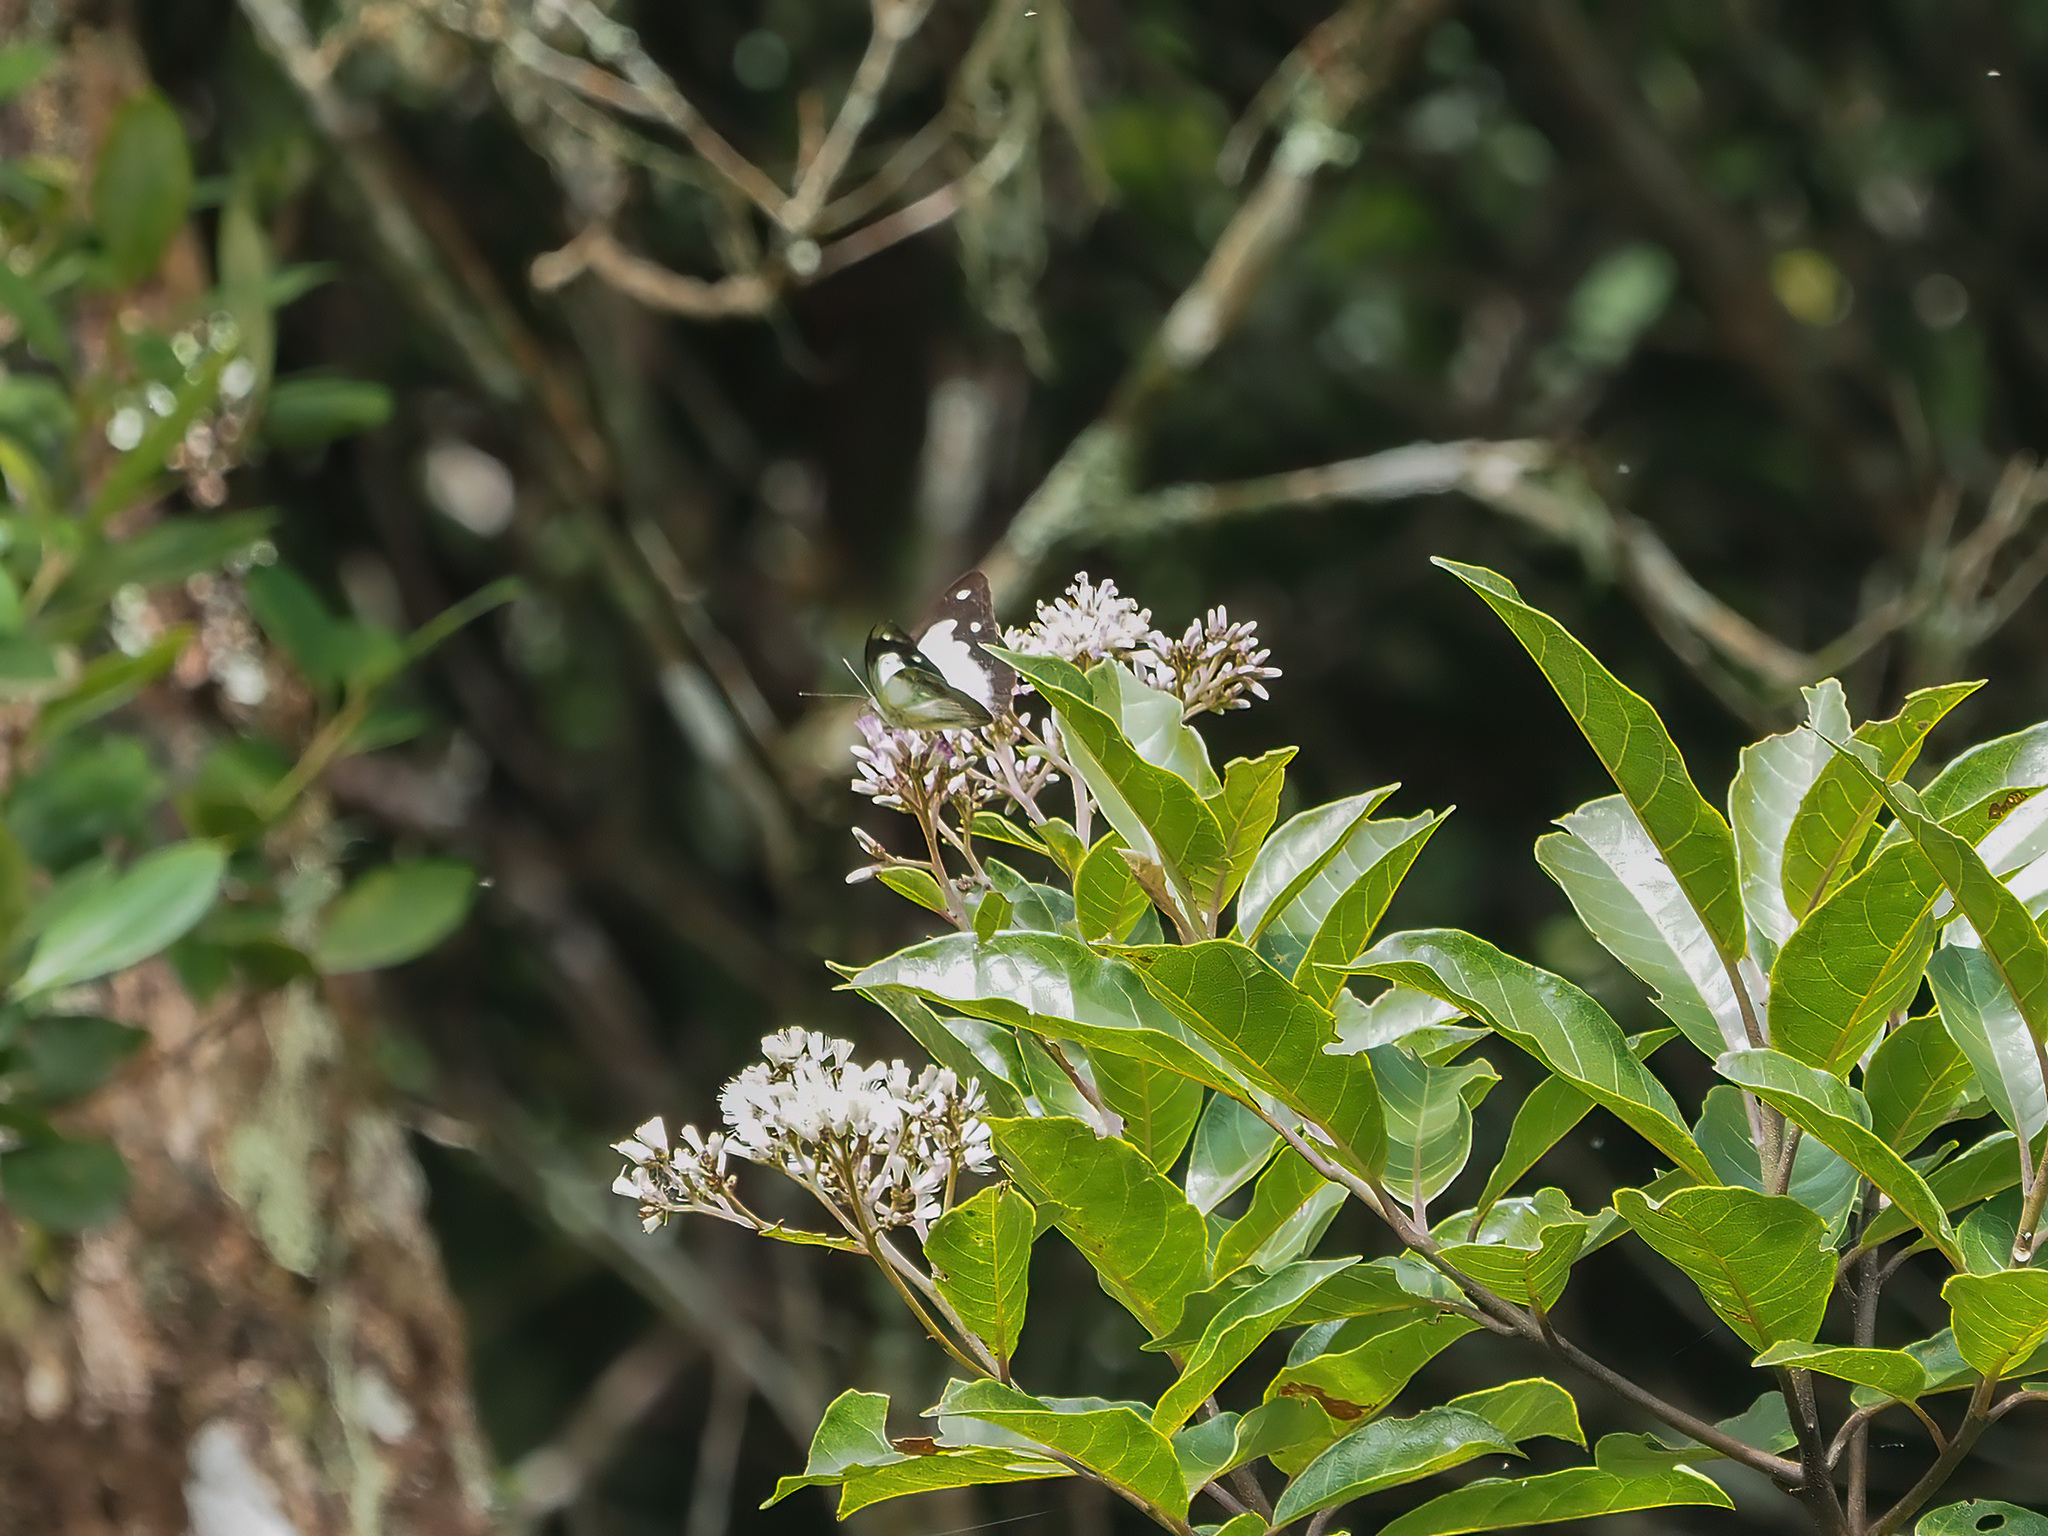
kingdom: Animalia
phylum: Arthropoda
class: Insecta
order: Lepidoptera
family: Pieridae
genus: Appias
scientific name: Appias pandione
